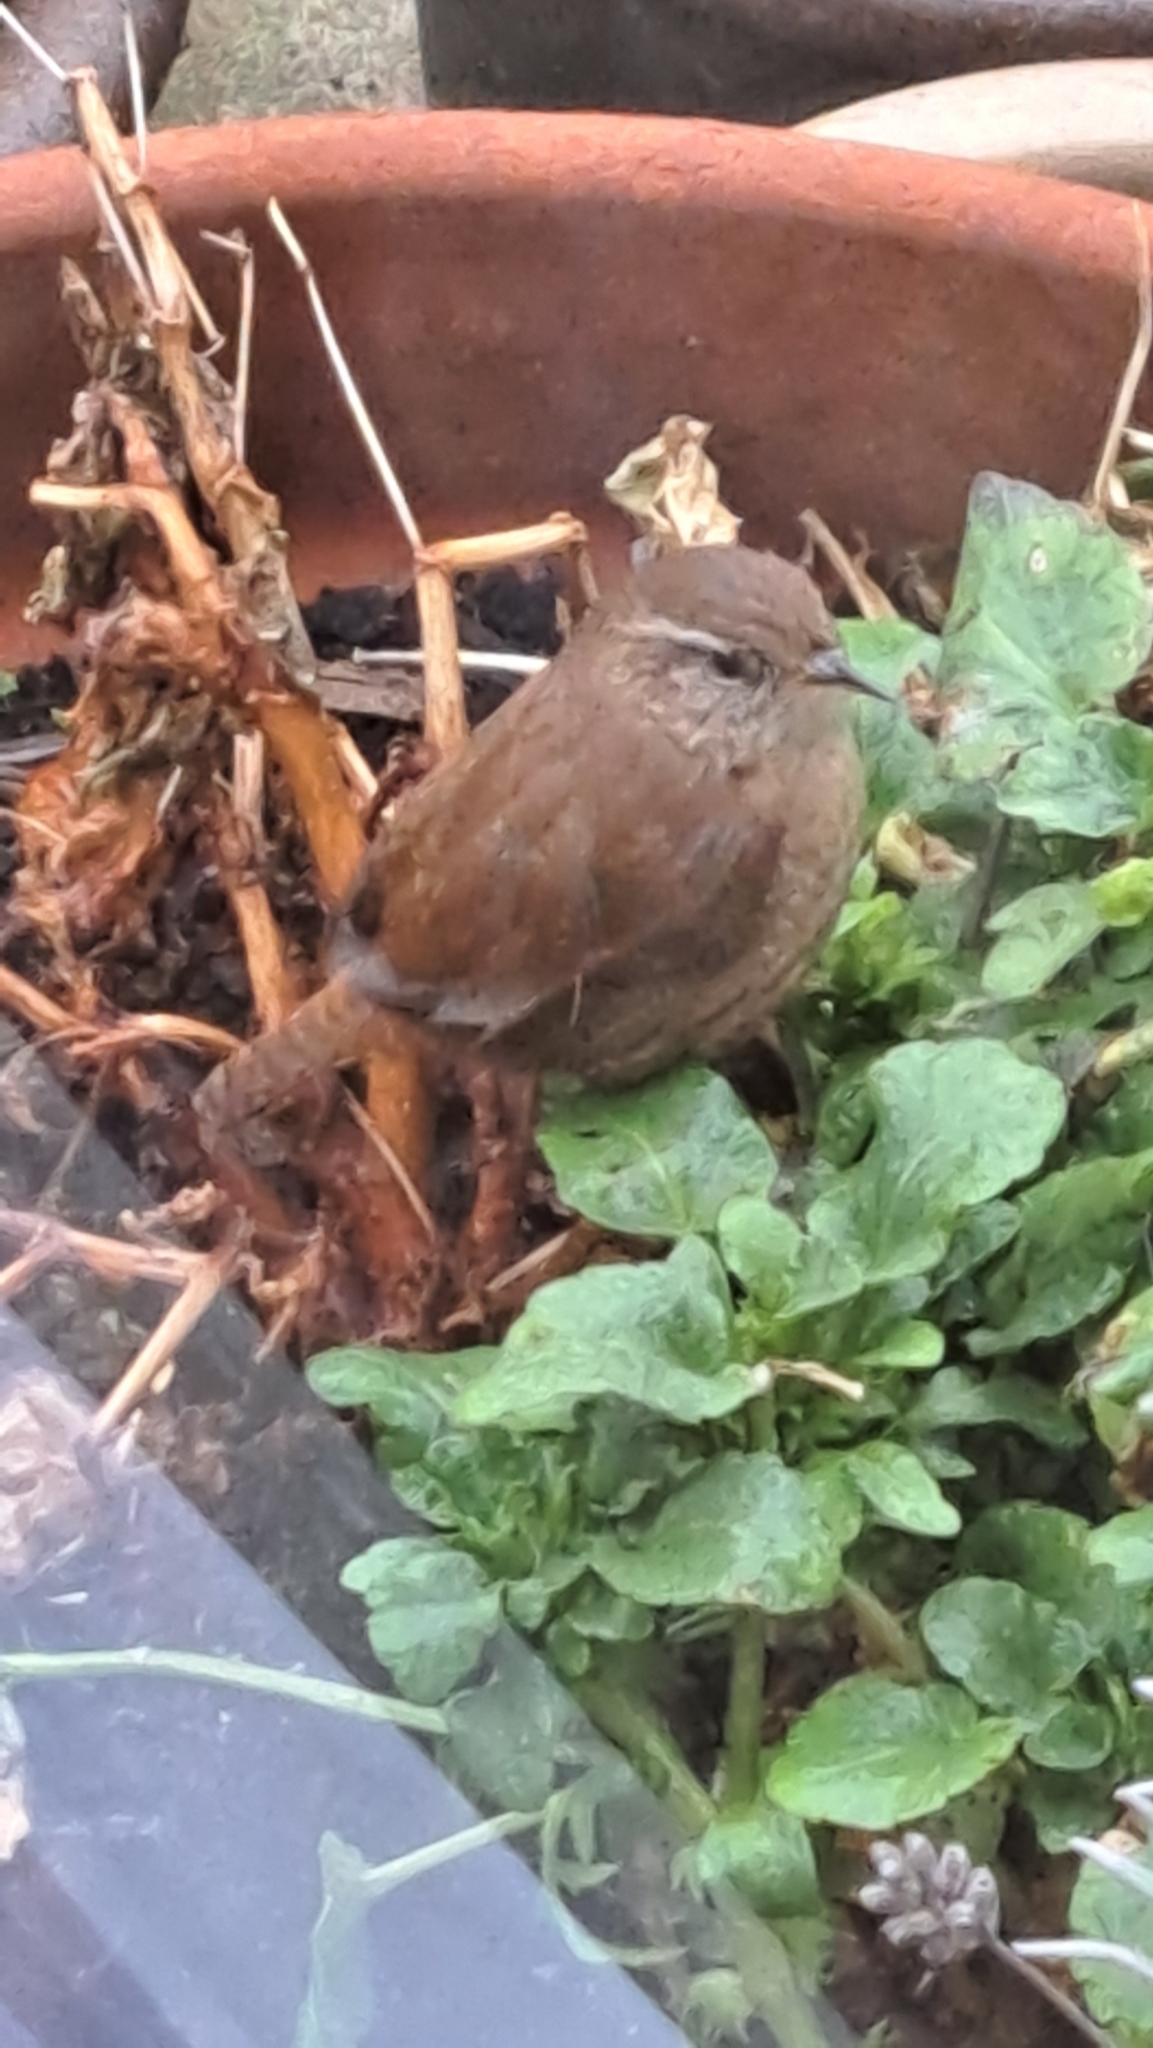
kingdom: Animalia
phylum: Chordata
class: Aves
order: Passeriformes
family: Troglodytidae
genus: Troglodytes
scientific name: Troglodytes troglodytes
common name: Eurasian wren
